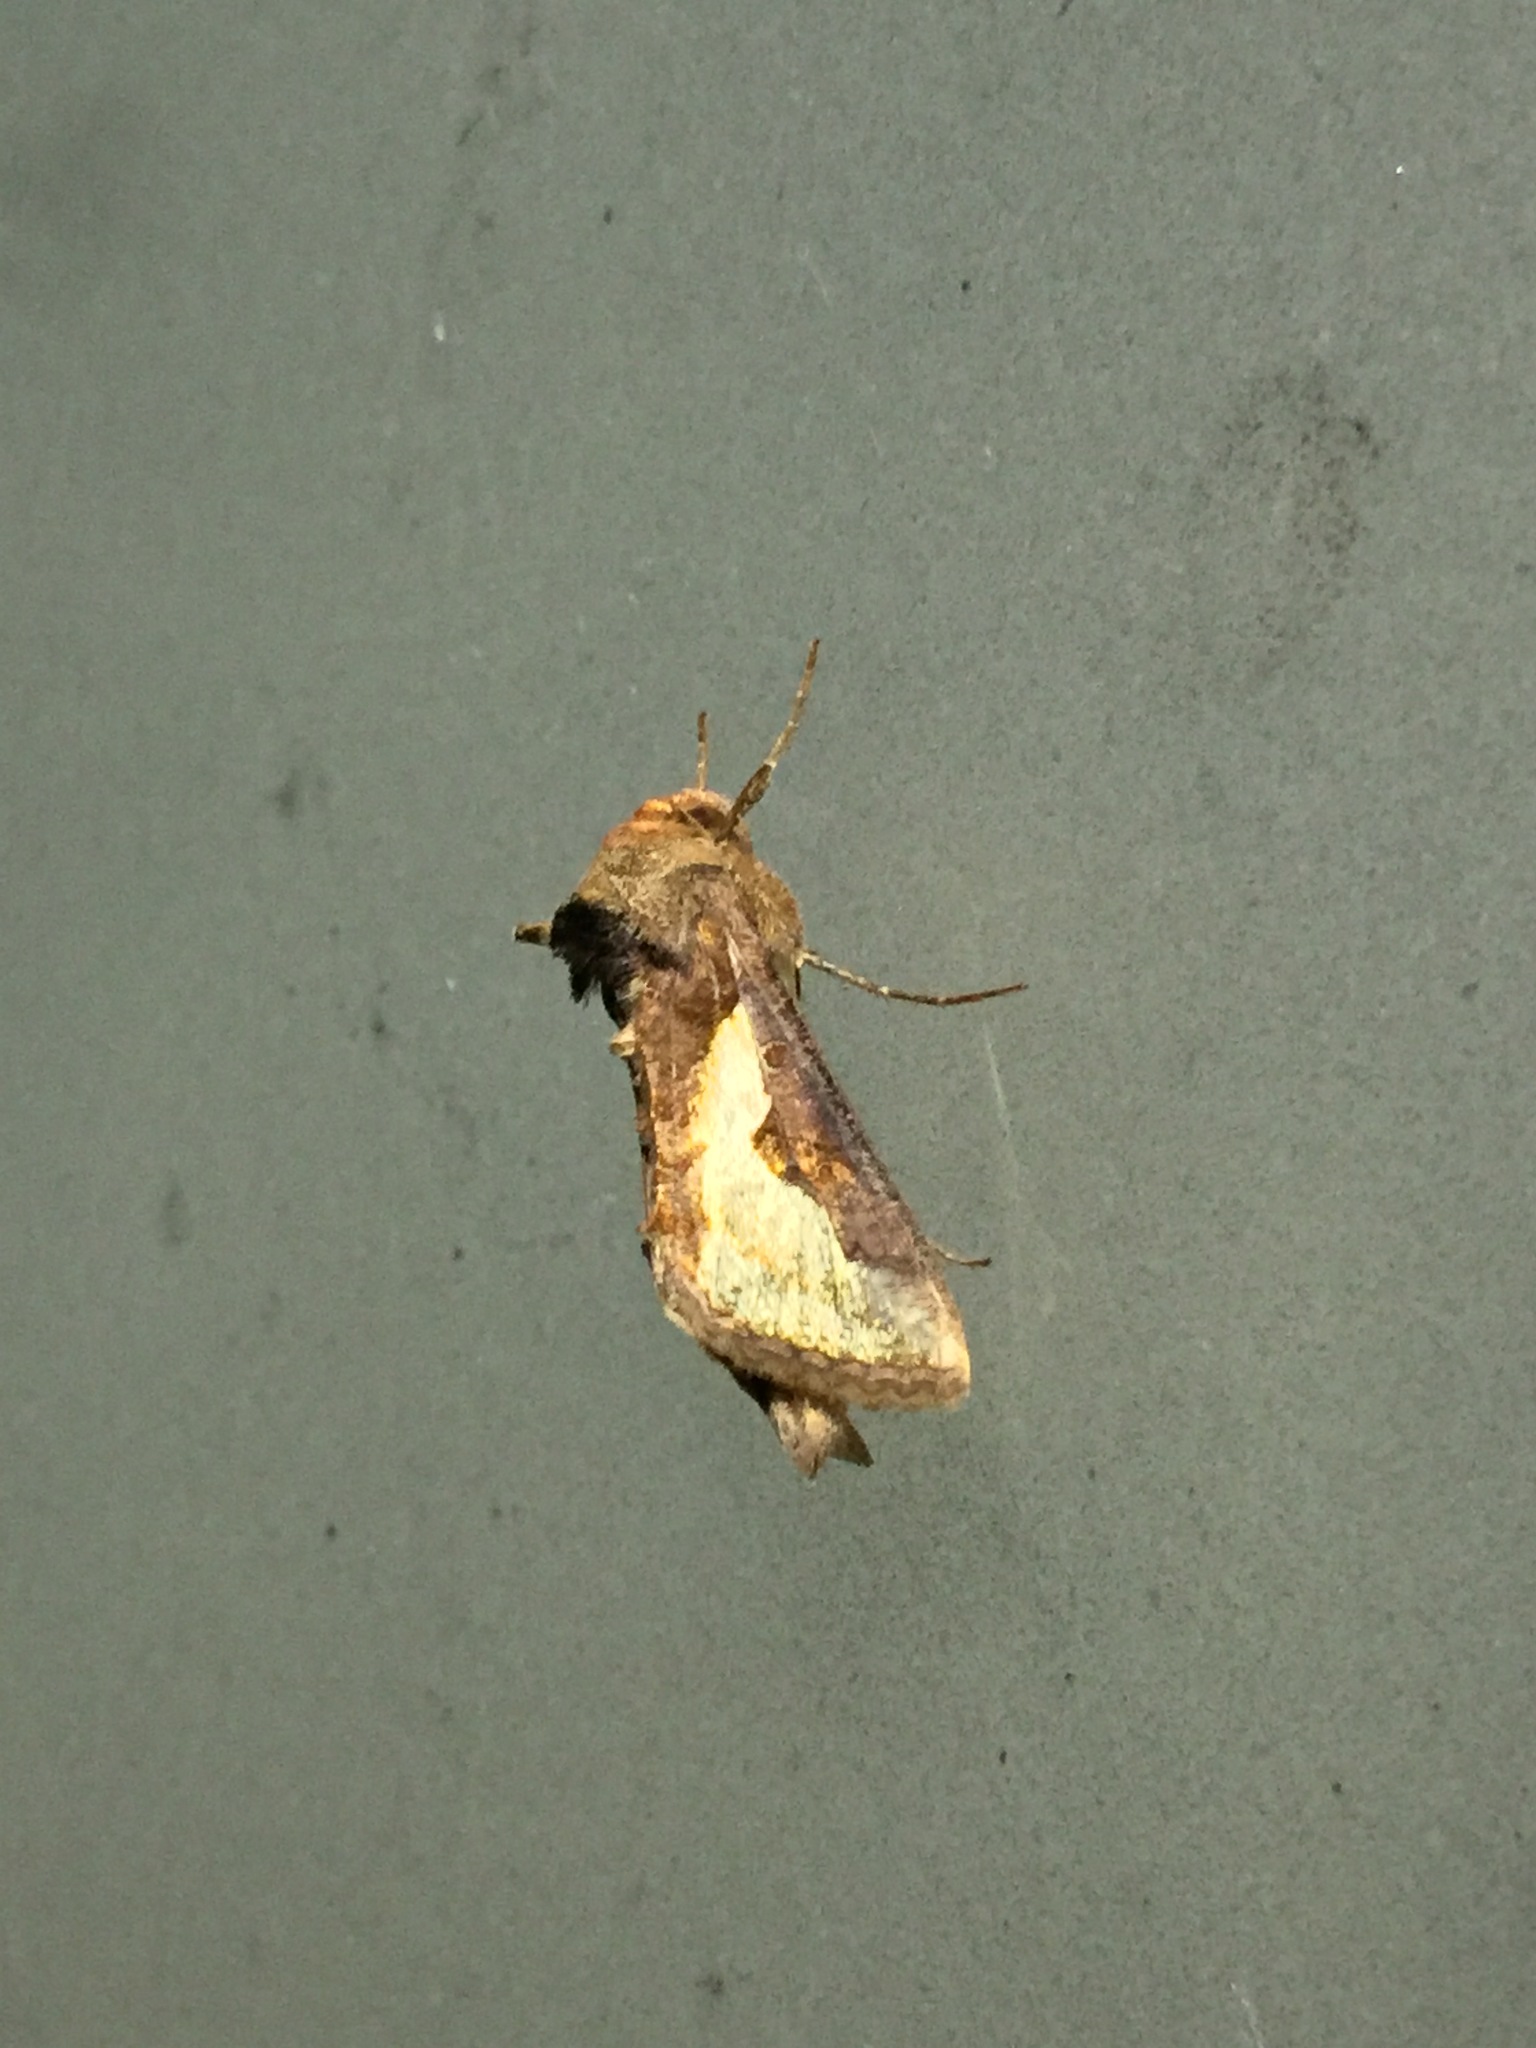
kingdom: Animalia
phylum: Arthropoda
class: Insecta
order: Lepidoptera
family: Noctuidae
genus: Thysanoplusia
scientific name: Thysanoplusia orichalcea
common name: Slender burnished brass, golden plusia
